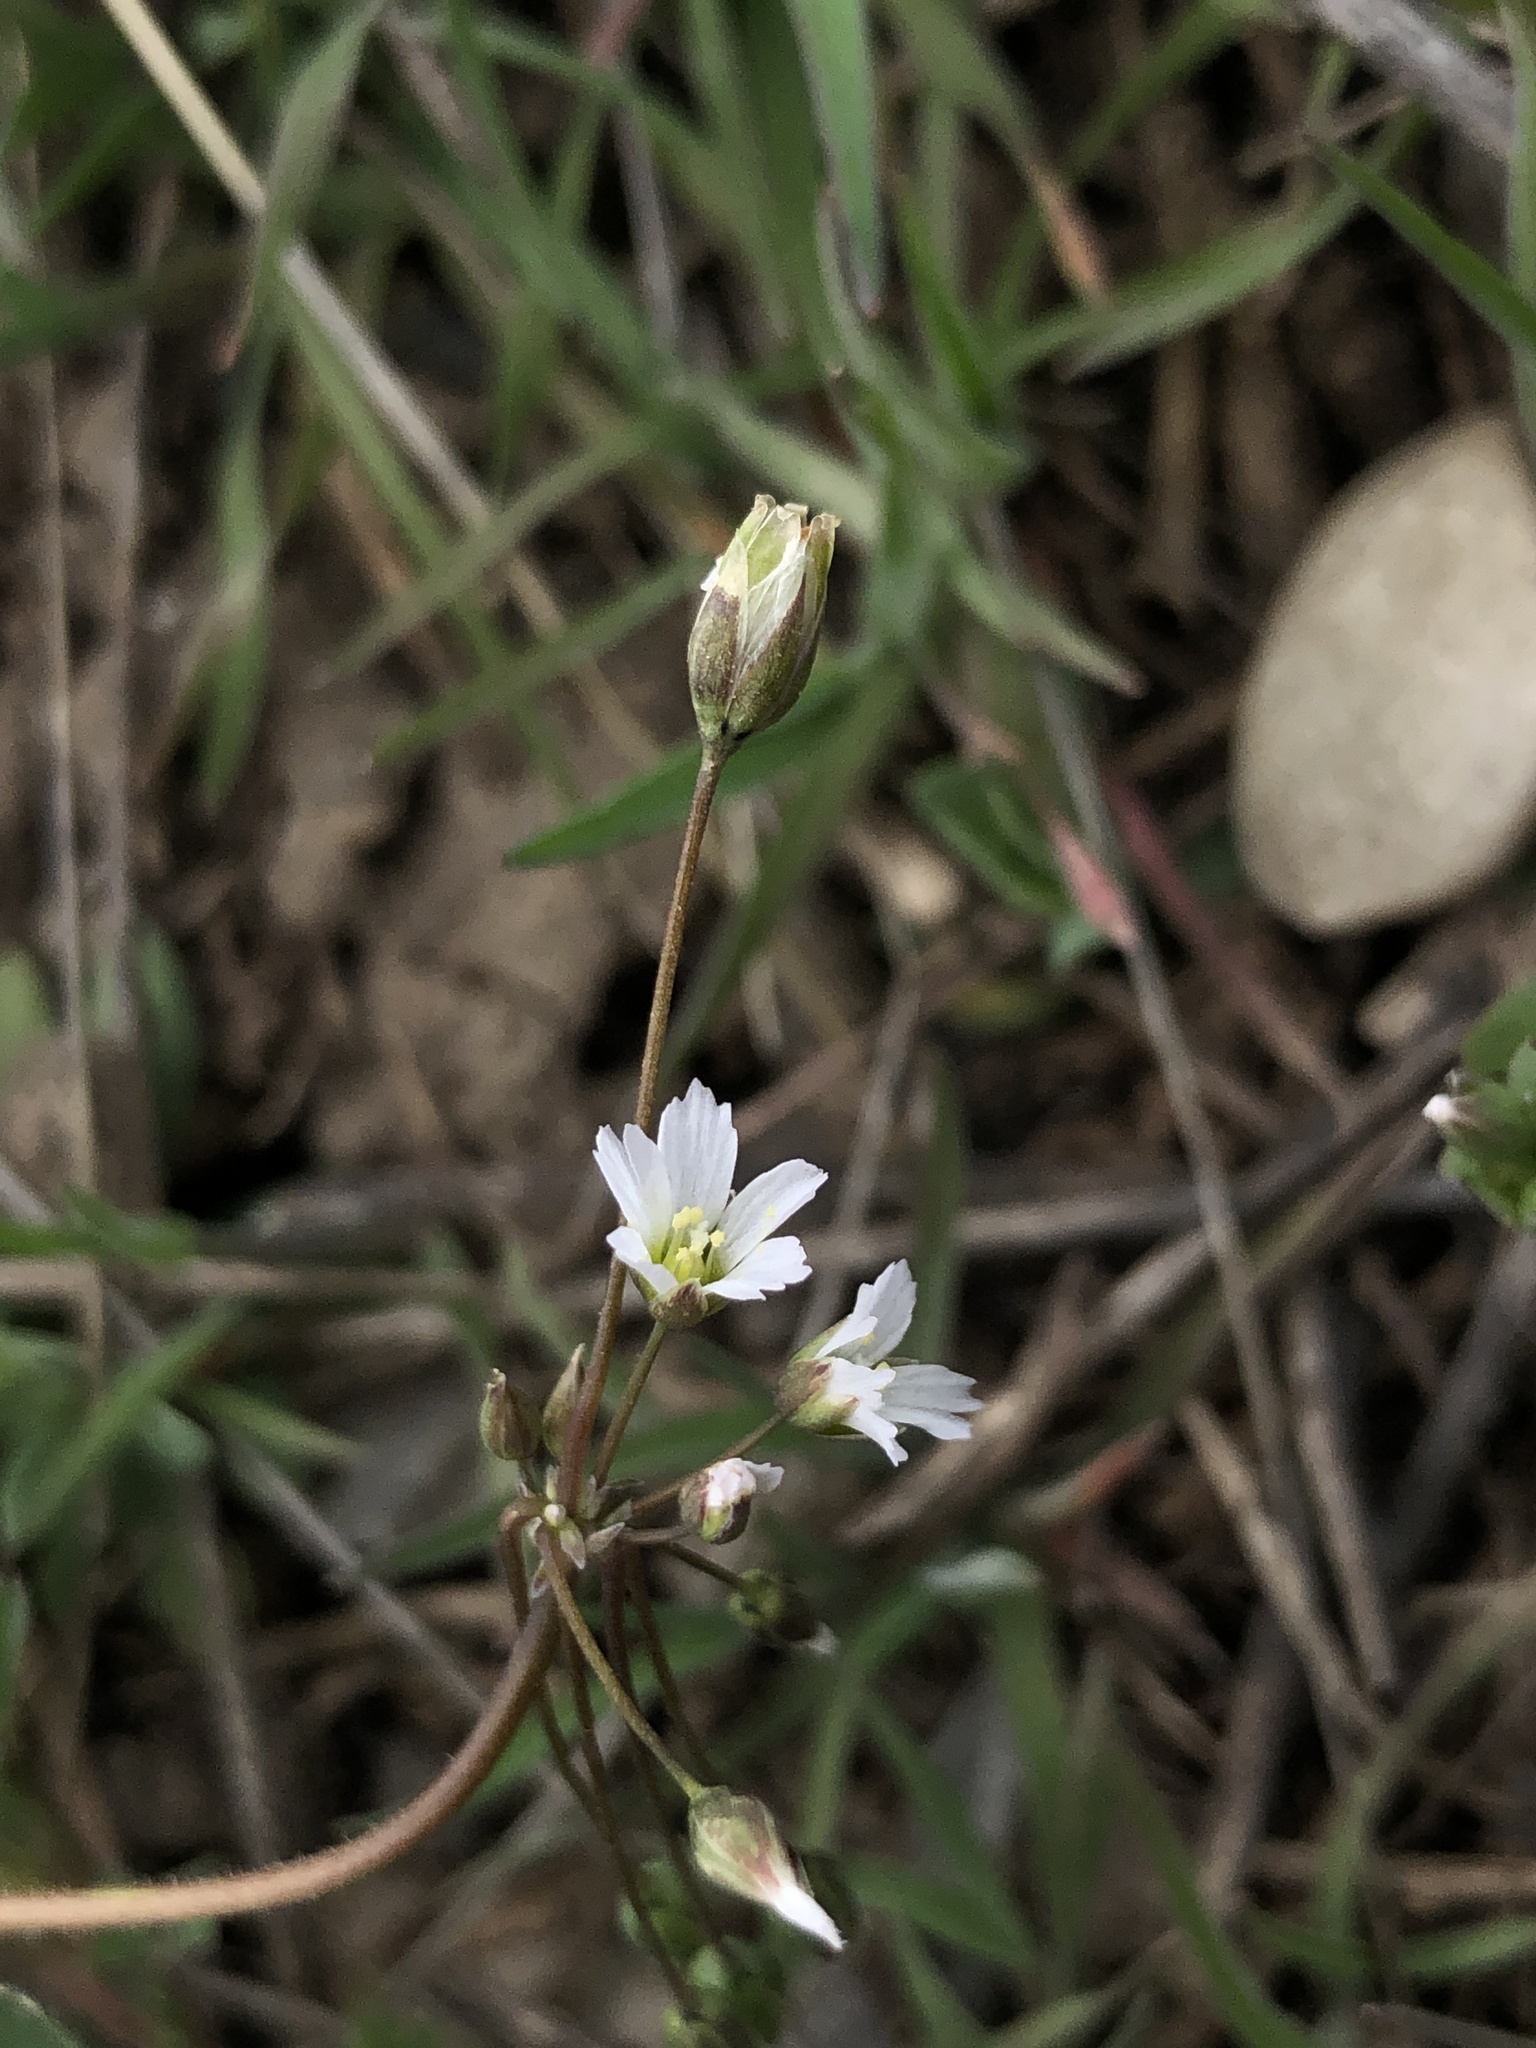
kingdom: Plantae
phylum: Tracheophyta
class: Magnoliopsida
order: Caryophyllales
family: Caryophyllaceae
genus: Holosteum
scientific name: Holosteum umbellatum
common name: Jagged chickweed
